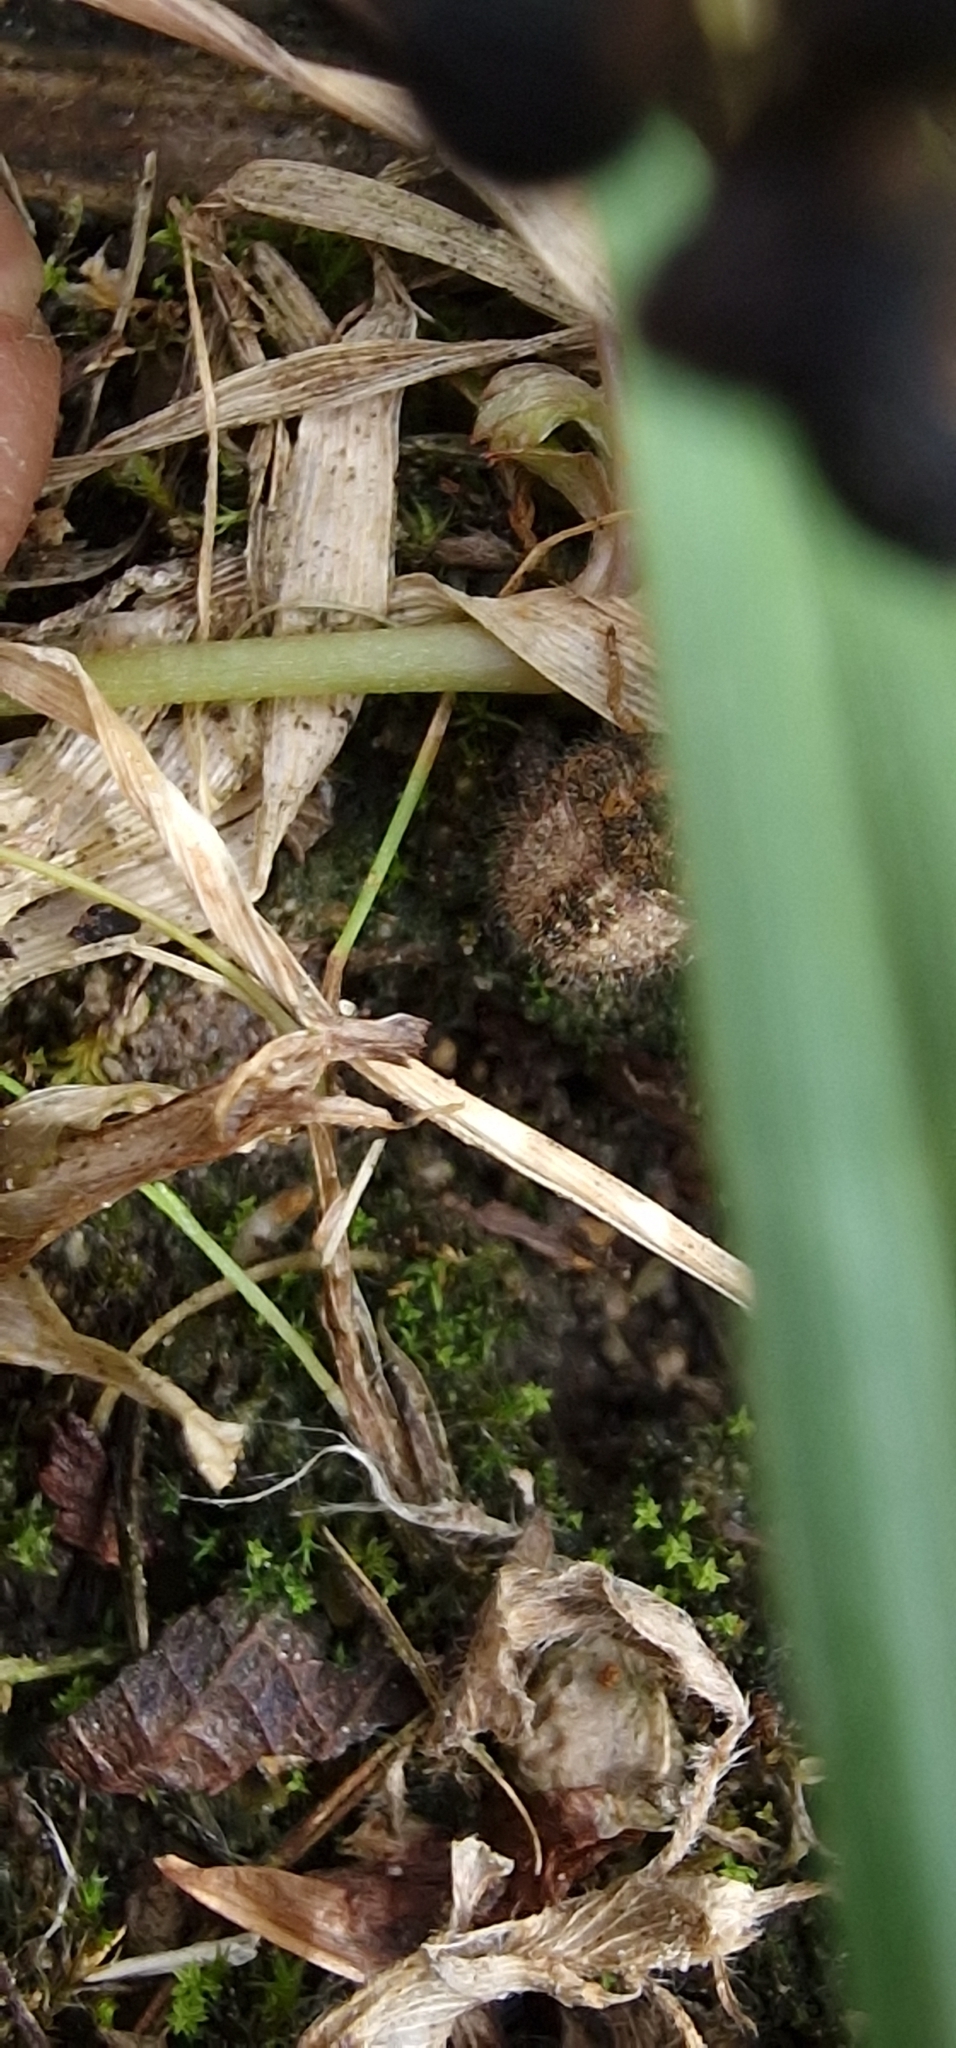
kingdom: Animalia
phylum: Arthropoda
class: Insecta
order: Hemiptera
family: Pentatomidae
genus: Dolycoris
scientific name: Dolycoris baccarum
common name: Sloe bug
